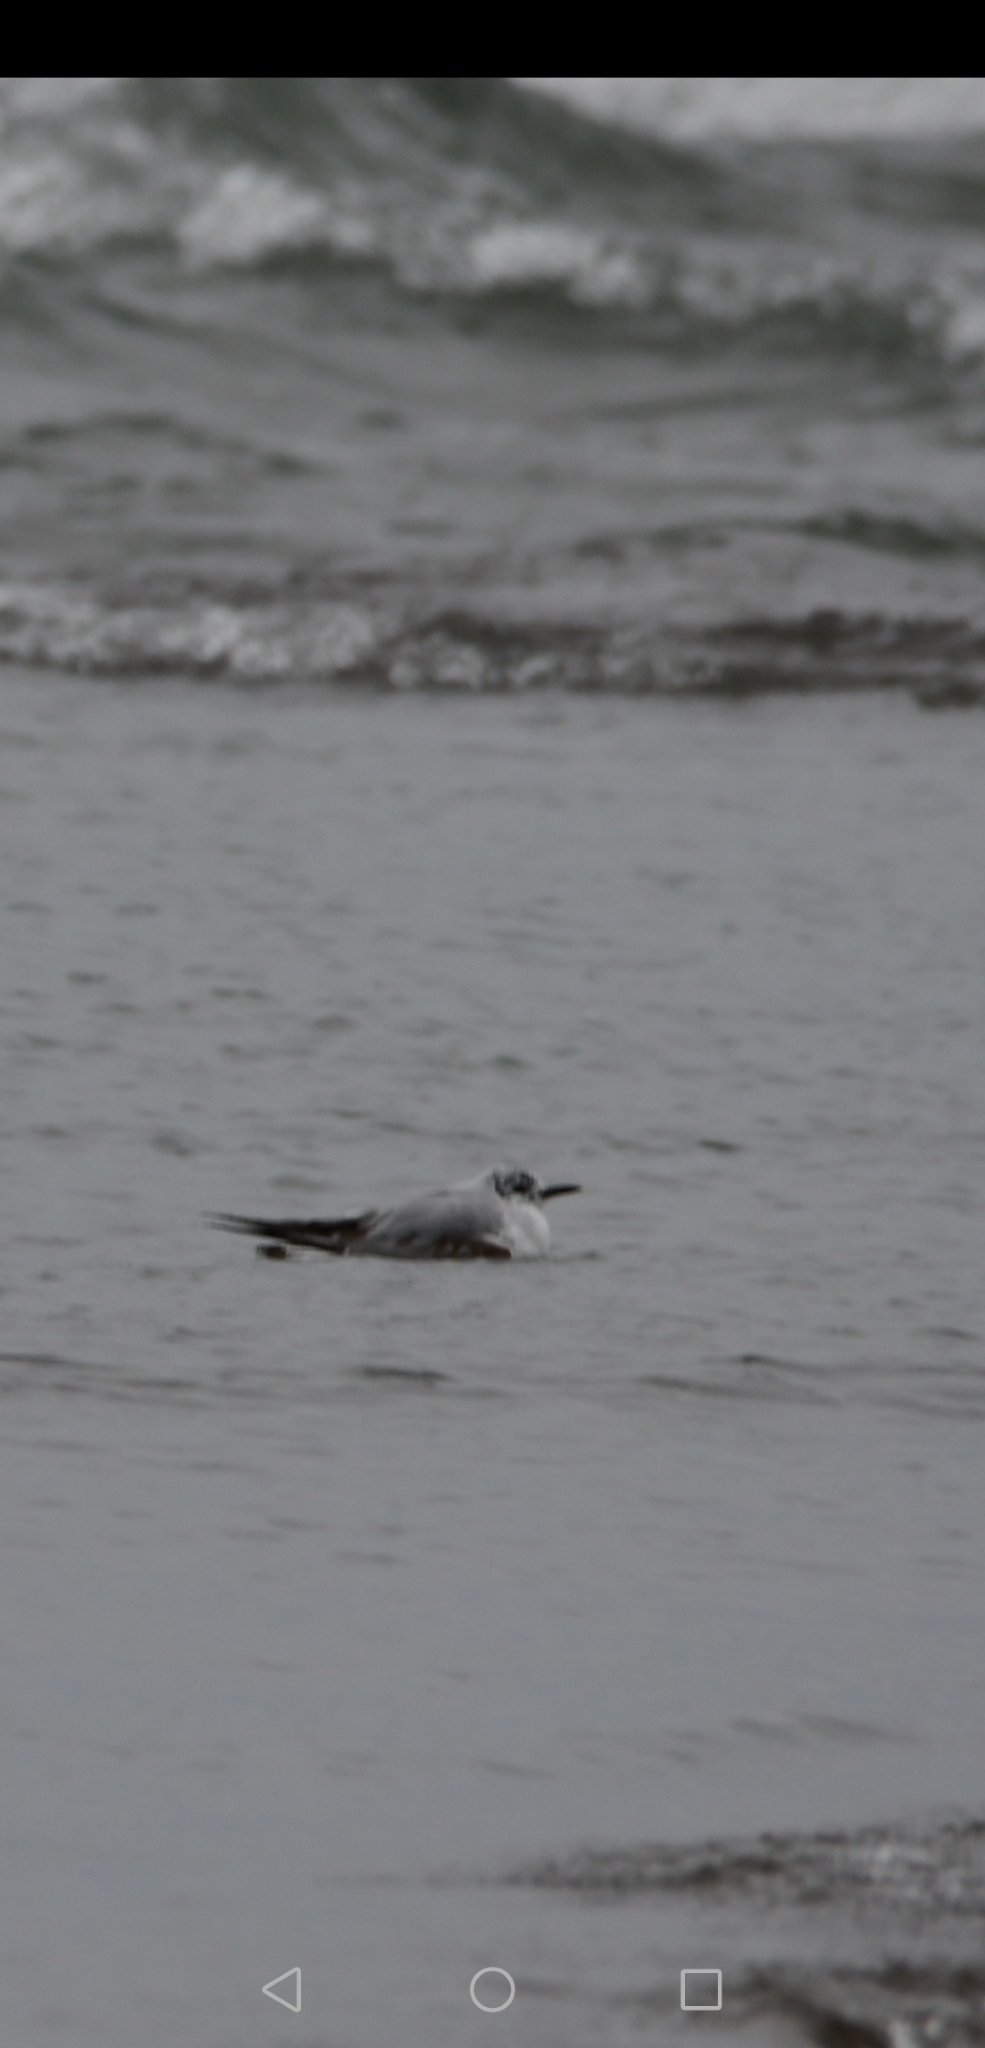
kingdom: Animalia
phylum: Chordata
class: Aves
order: Charadriiformes
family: Laridae
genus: Chroicocephalus
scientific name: Chroicocephalus philadelphia
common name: Bonaparte's gull
